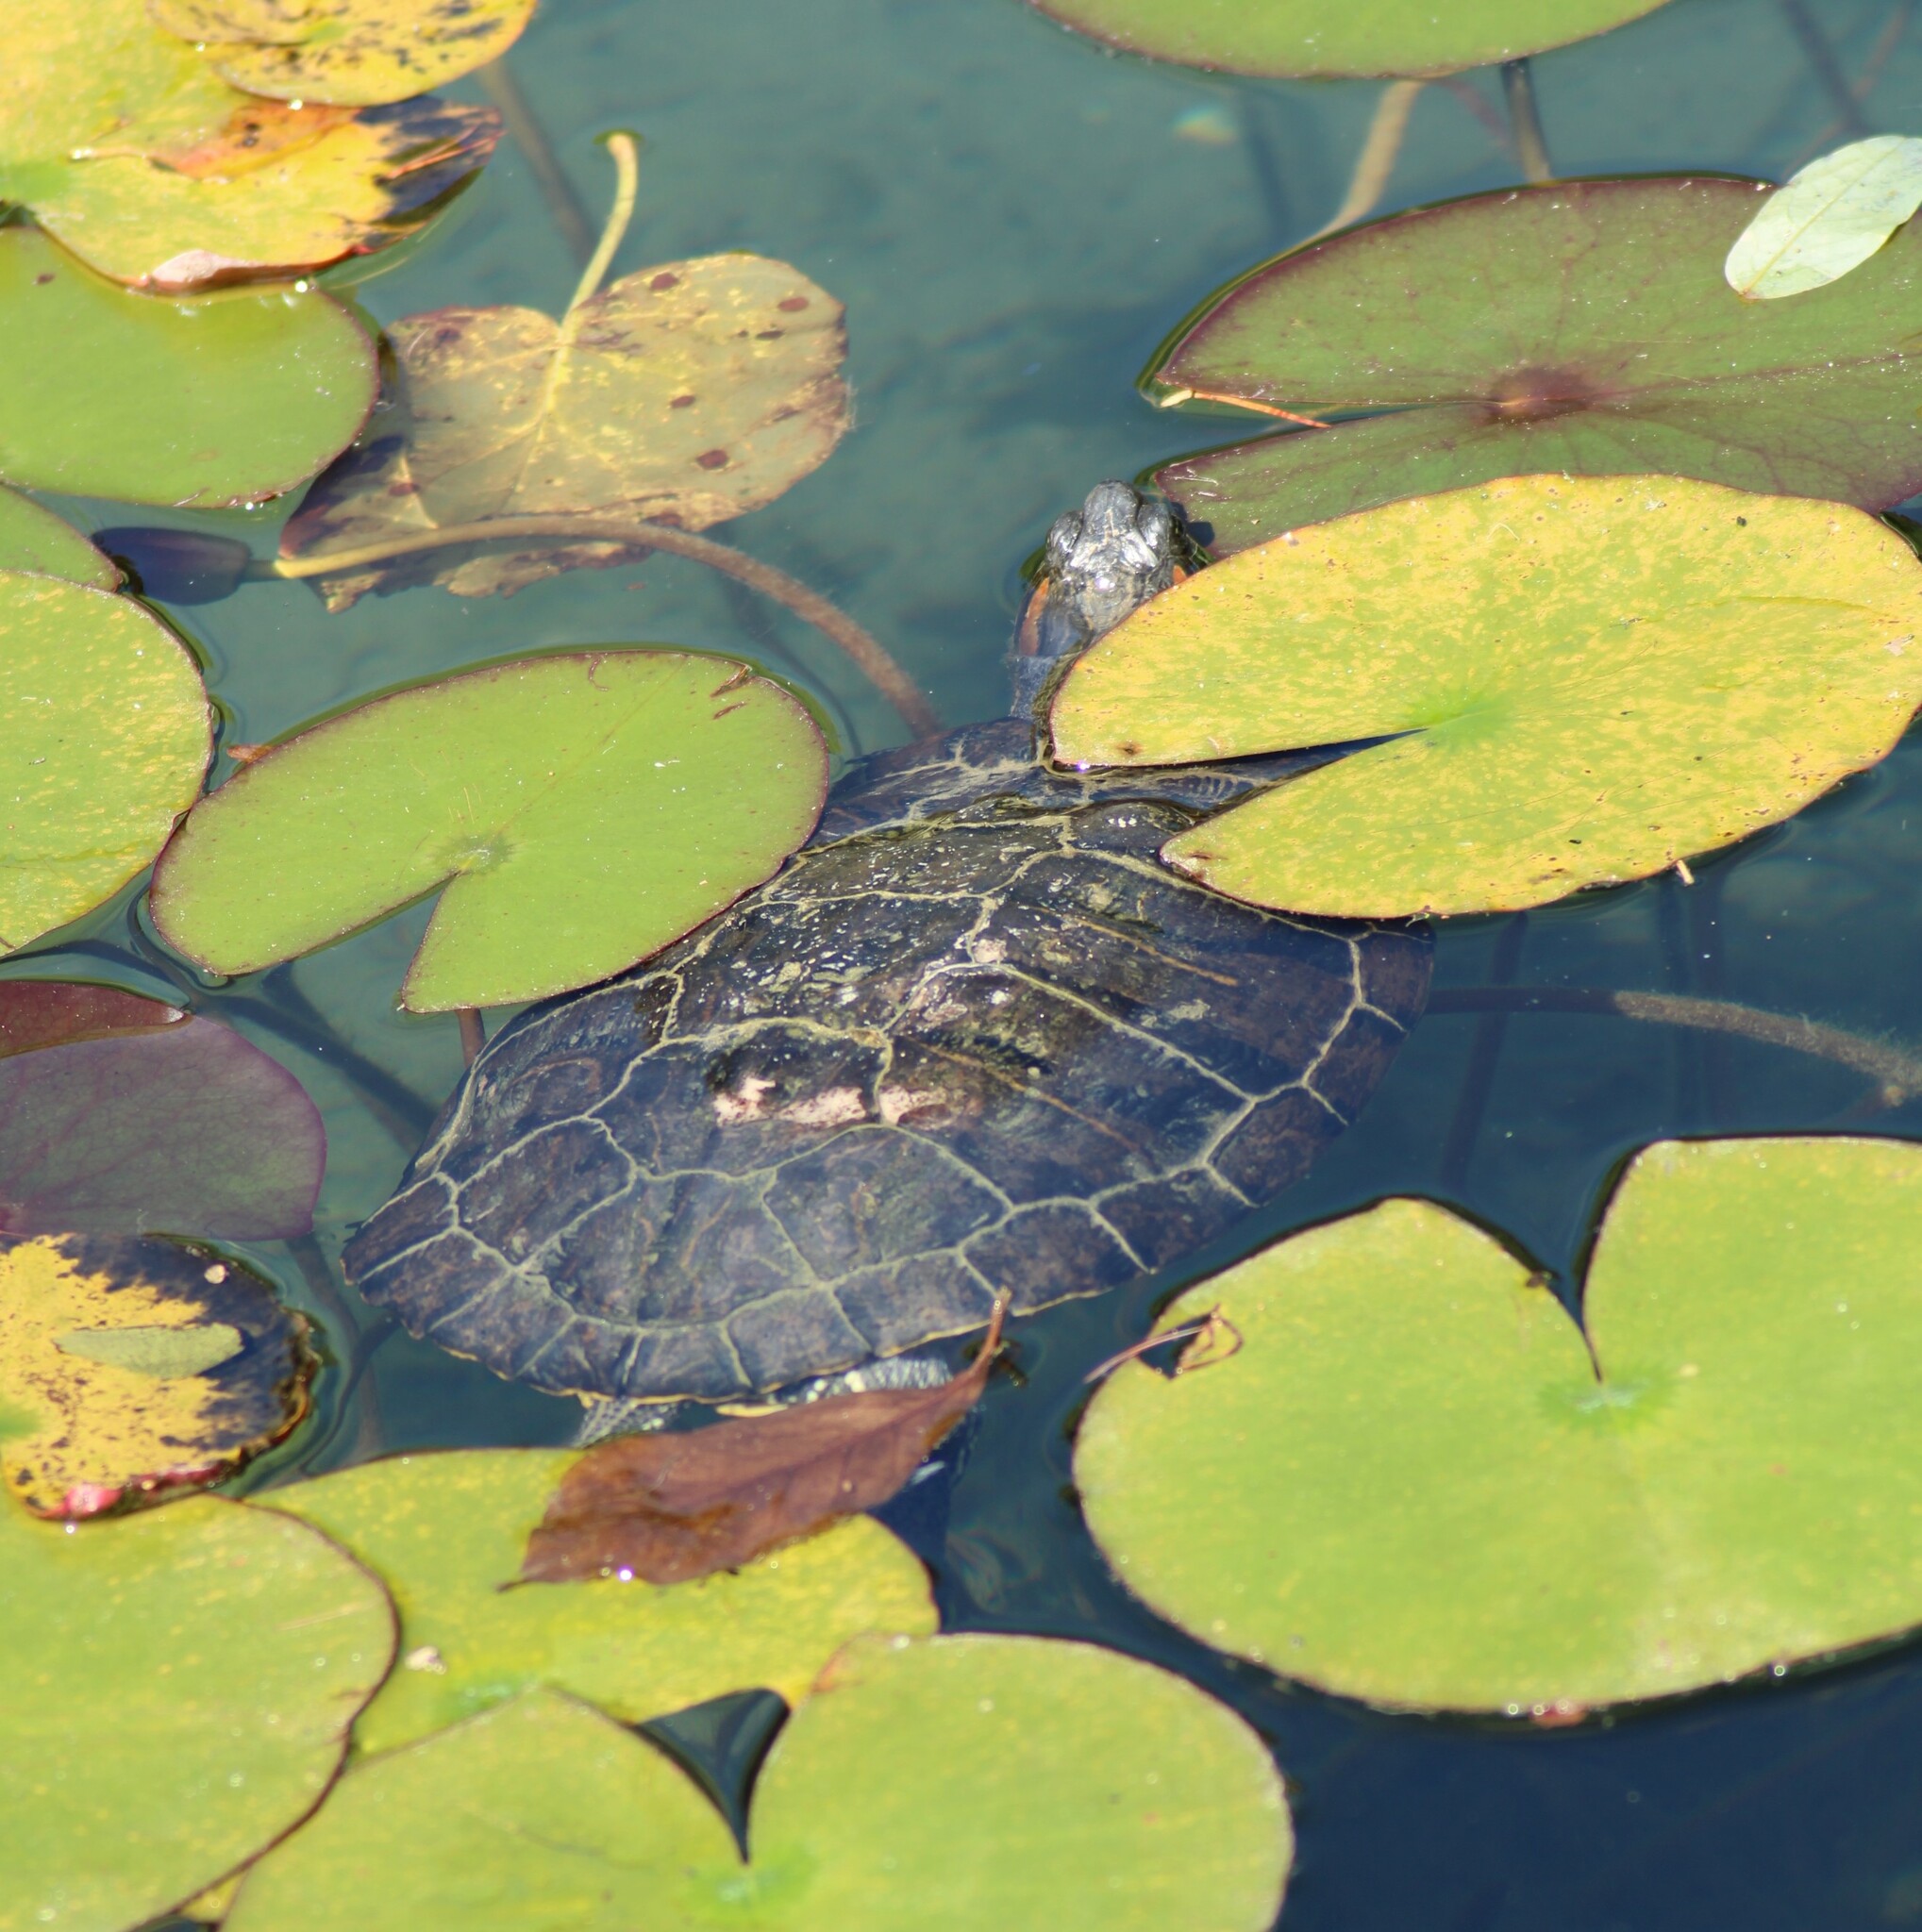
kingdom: Animalia
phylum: Chordata
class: Testudines
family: Emydidae
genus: Trachemys
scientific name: Trachemys scripta
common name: Slider
